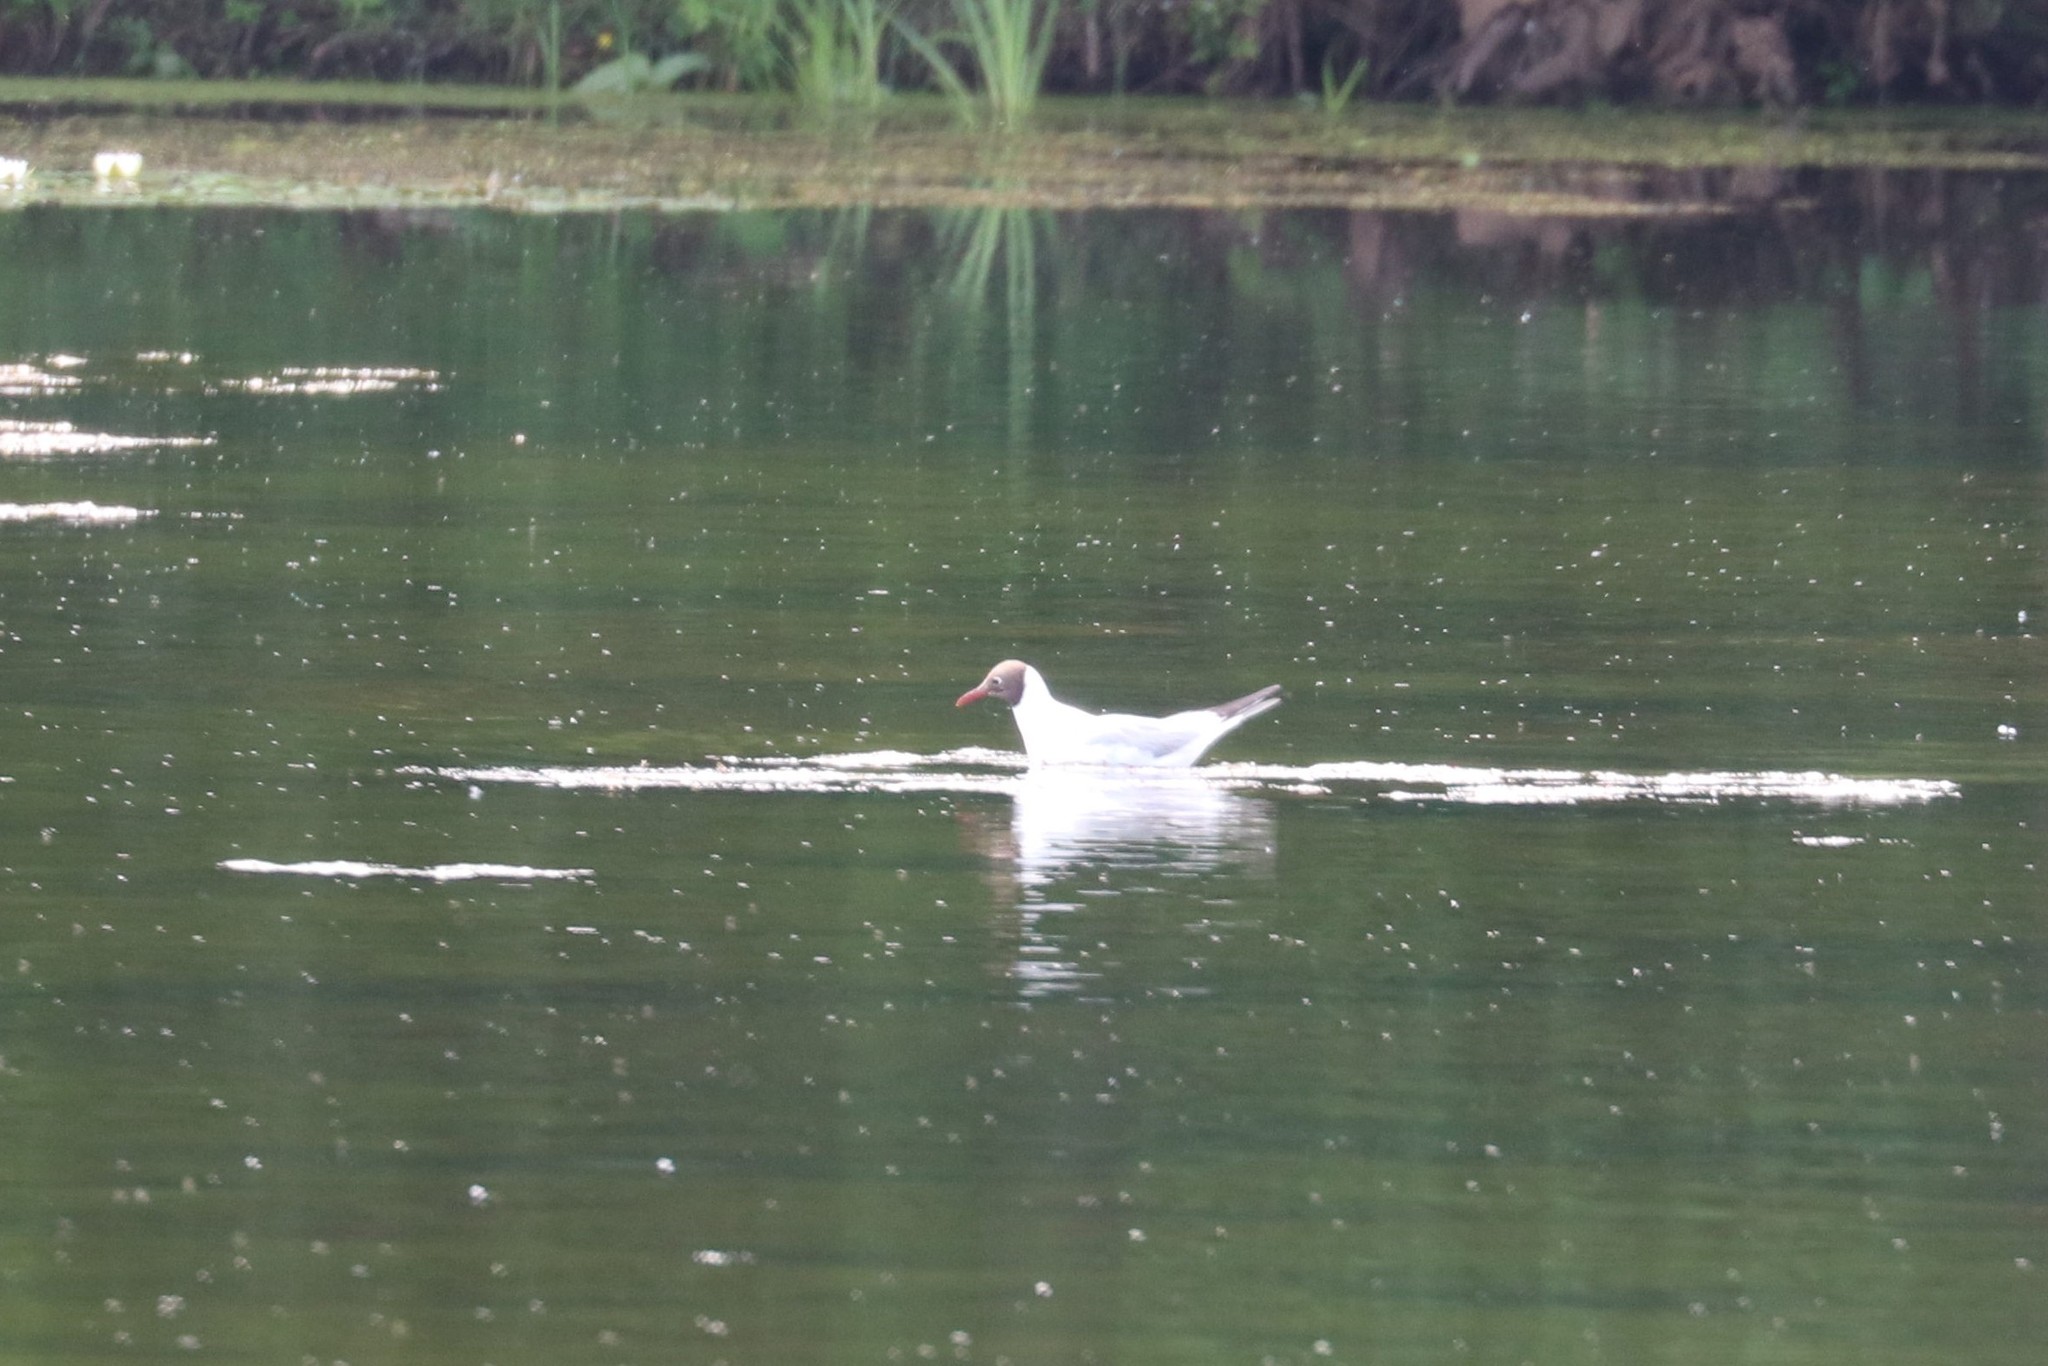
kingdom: Animalia
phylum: Chordata
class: Aves
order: Charadriiformes
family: Laridae
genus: Chroicocephalus
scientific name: Chroicocephalus ridibundus
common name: Black-headed gull
